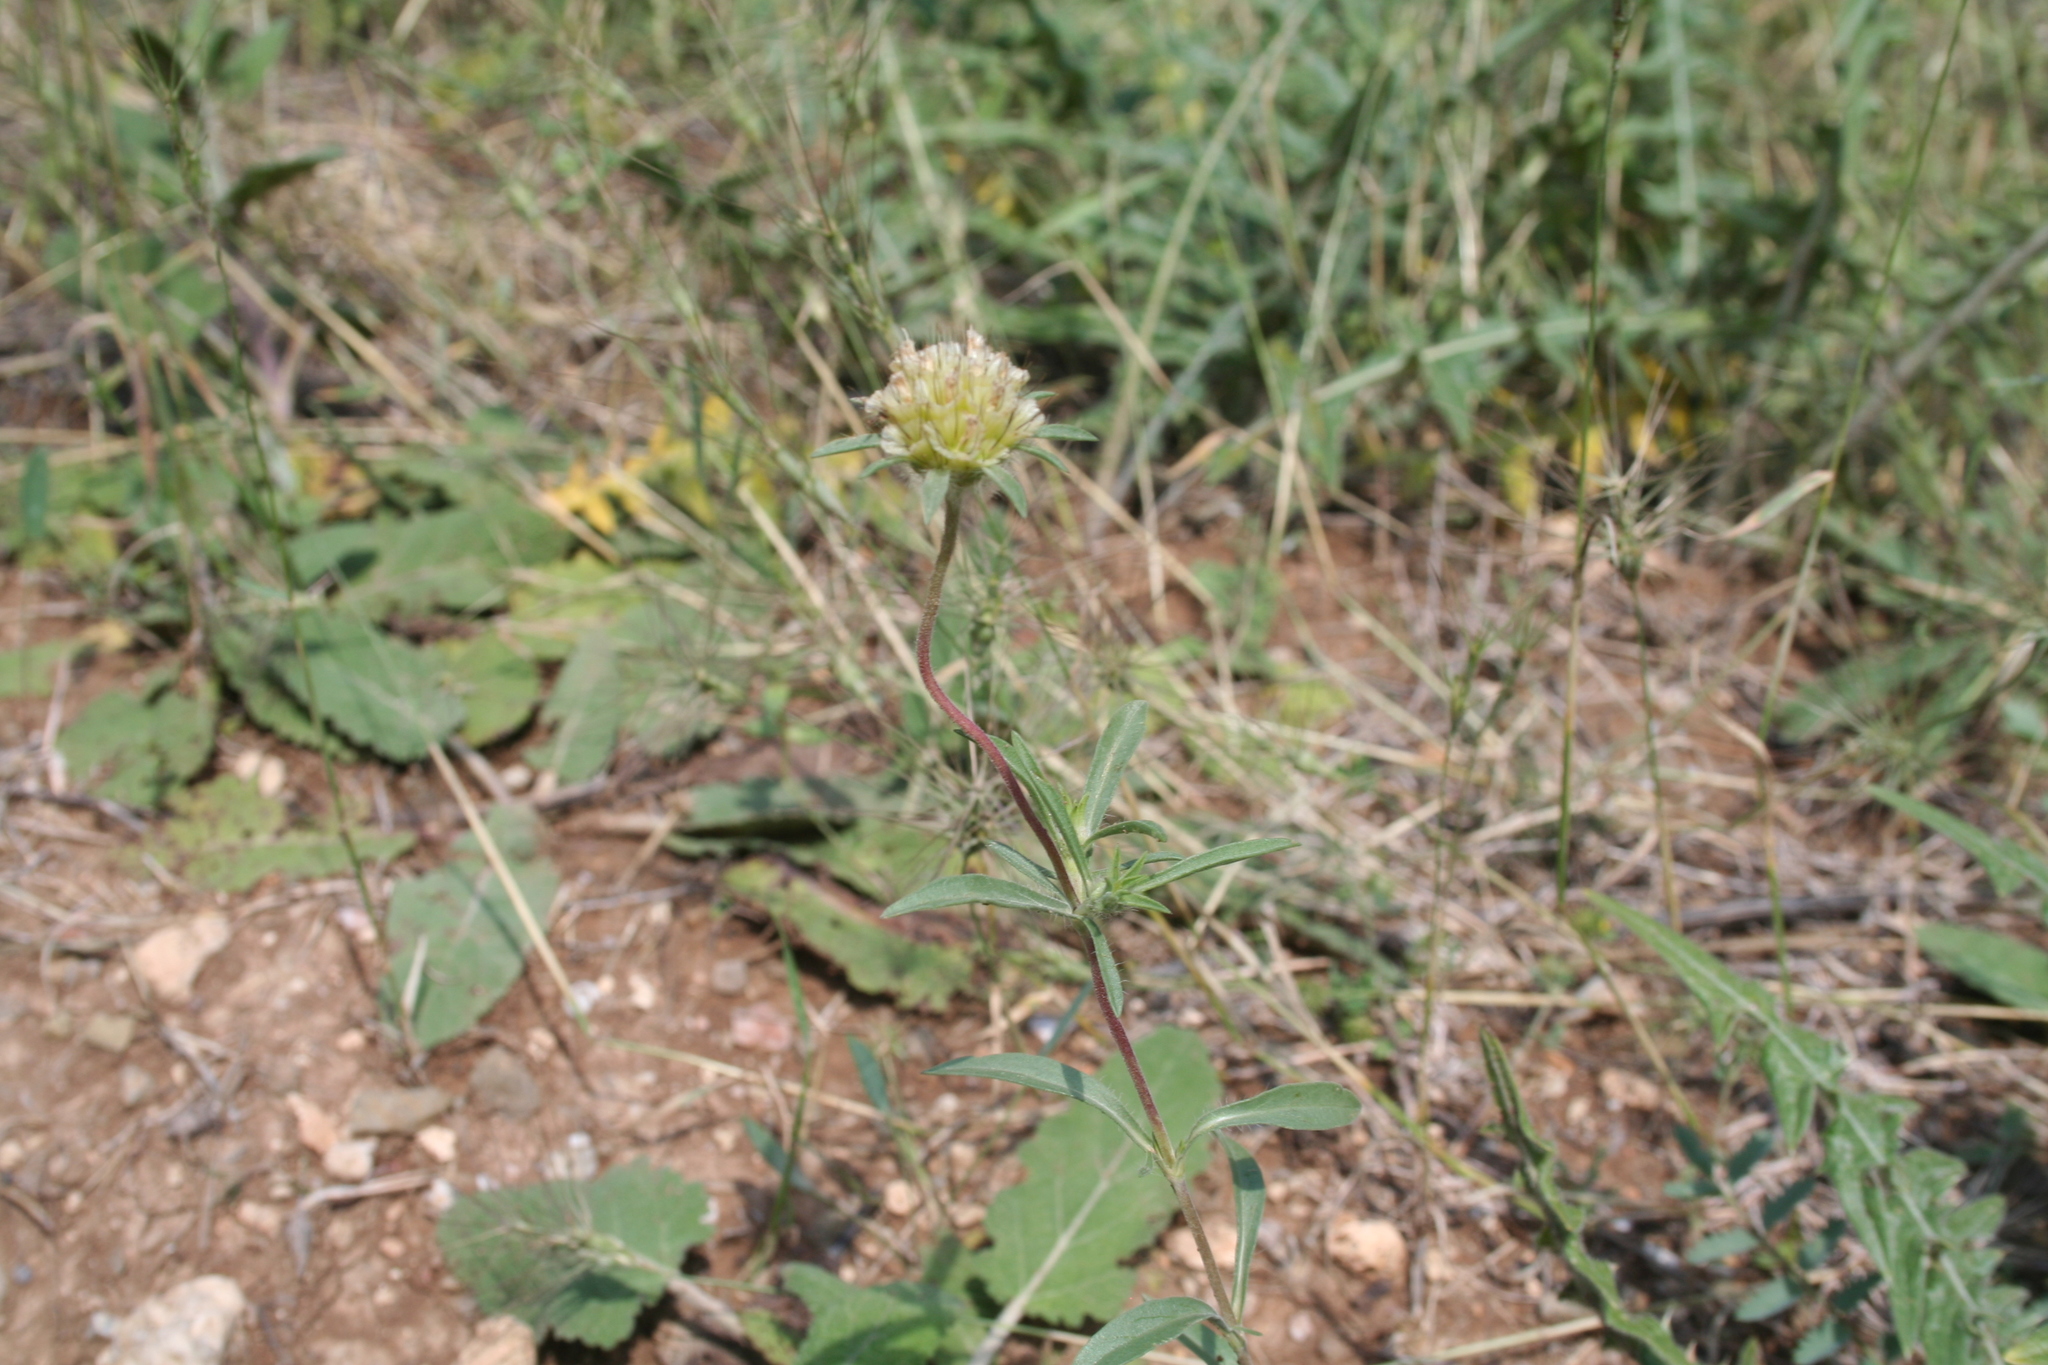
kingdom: Plantae
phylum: Tracheophyta
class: Magnoliopsida
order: Dipsacales
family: Caprifoliaceae
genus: Lomelosia
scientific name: Lomelosia rotata
